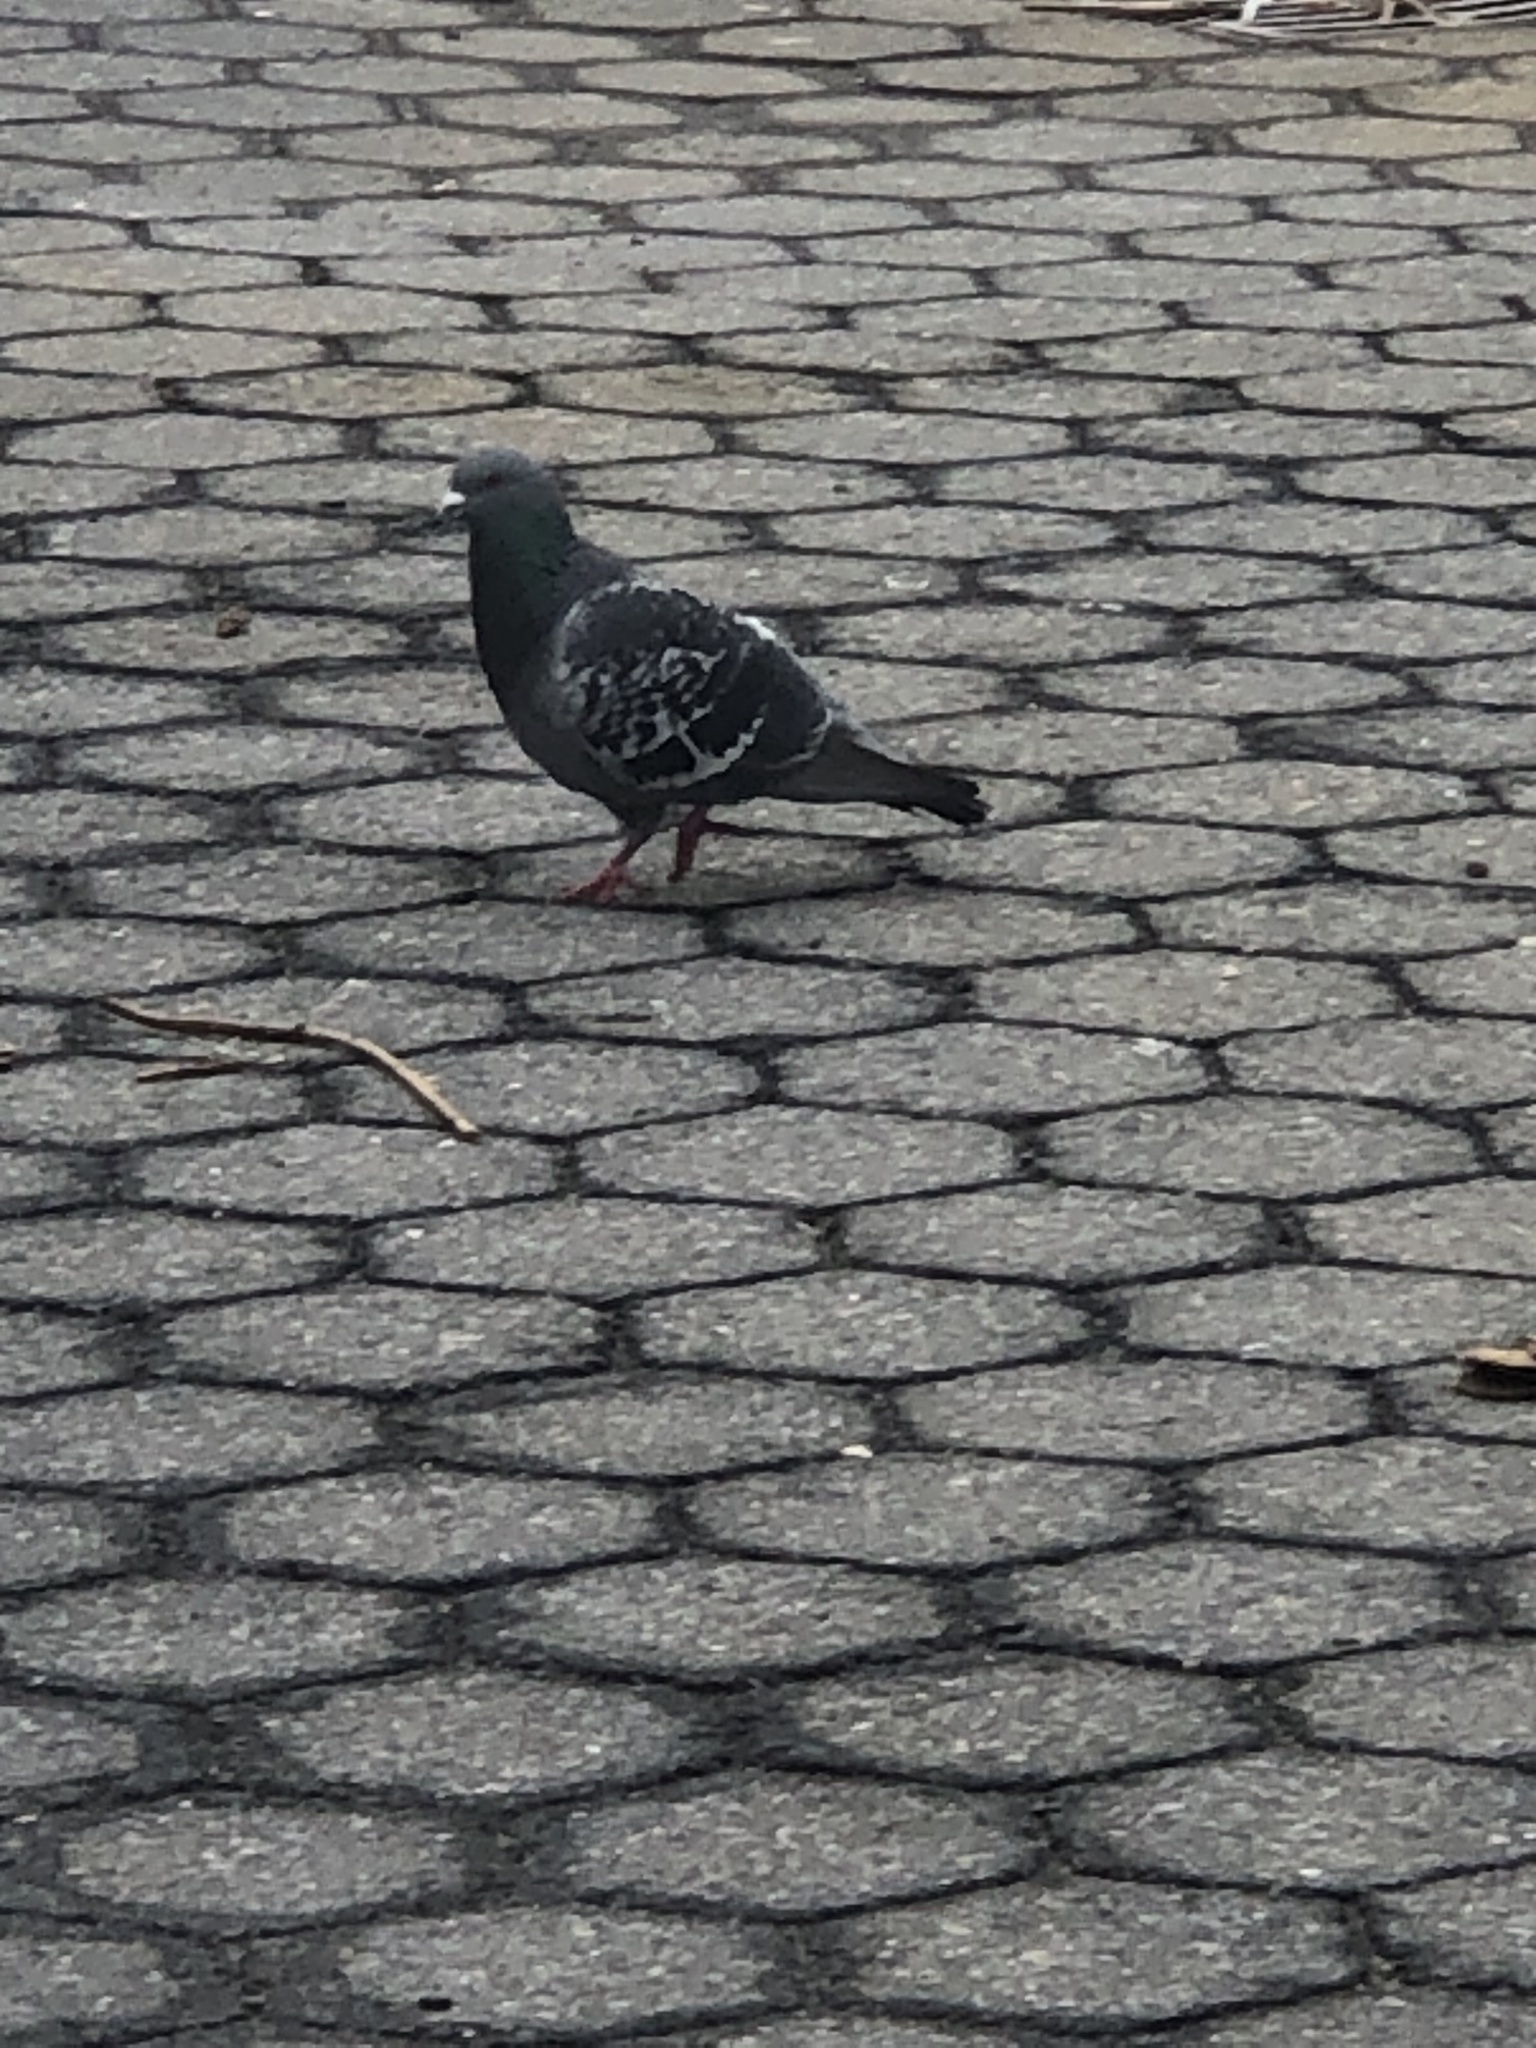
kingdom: Animalia
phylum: Chordata
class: Aves
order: Columbiformes
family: Columbidae
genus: Columba
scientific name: Columba livia
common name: Rock pigeon
